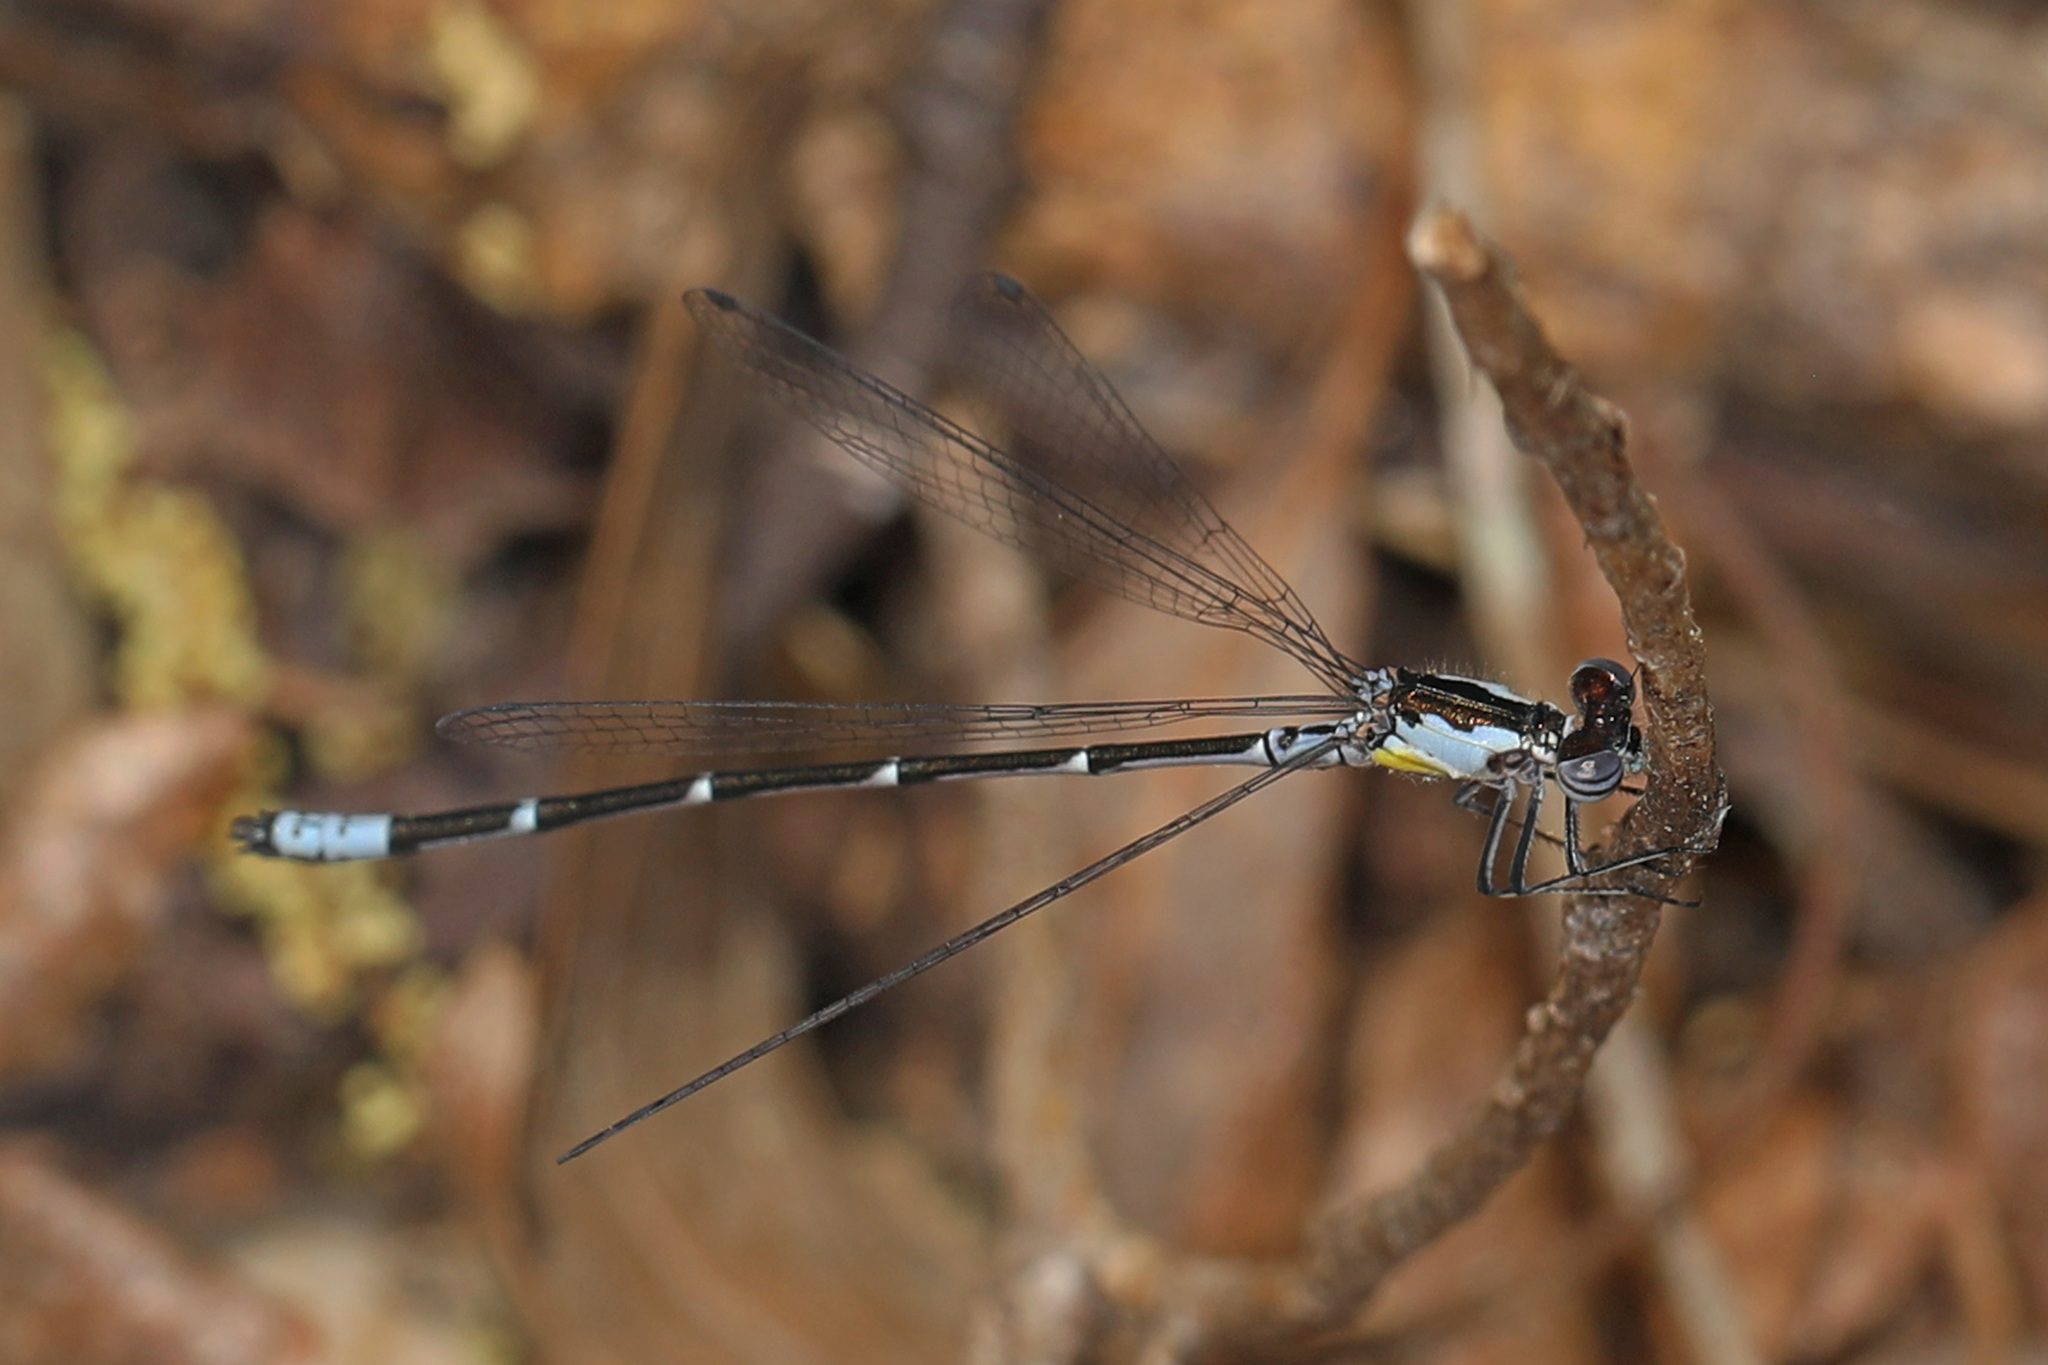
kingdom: Animalia
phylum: Arthropoda
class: Insecta
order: Odonata
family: Coenagrionidae
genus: Chromagrion
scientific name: Chromagrion conditum
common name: Aurora damsel
